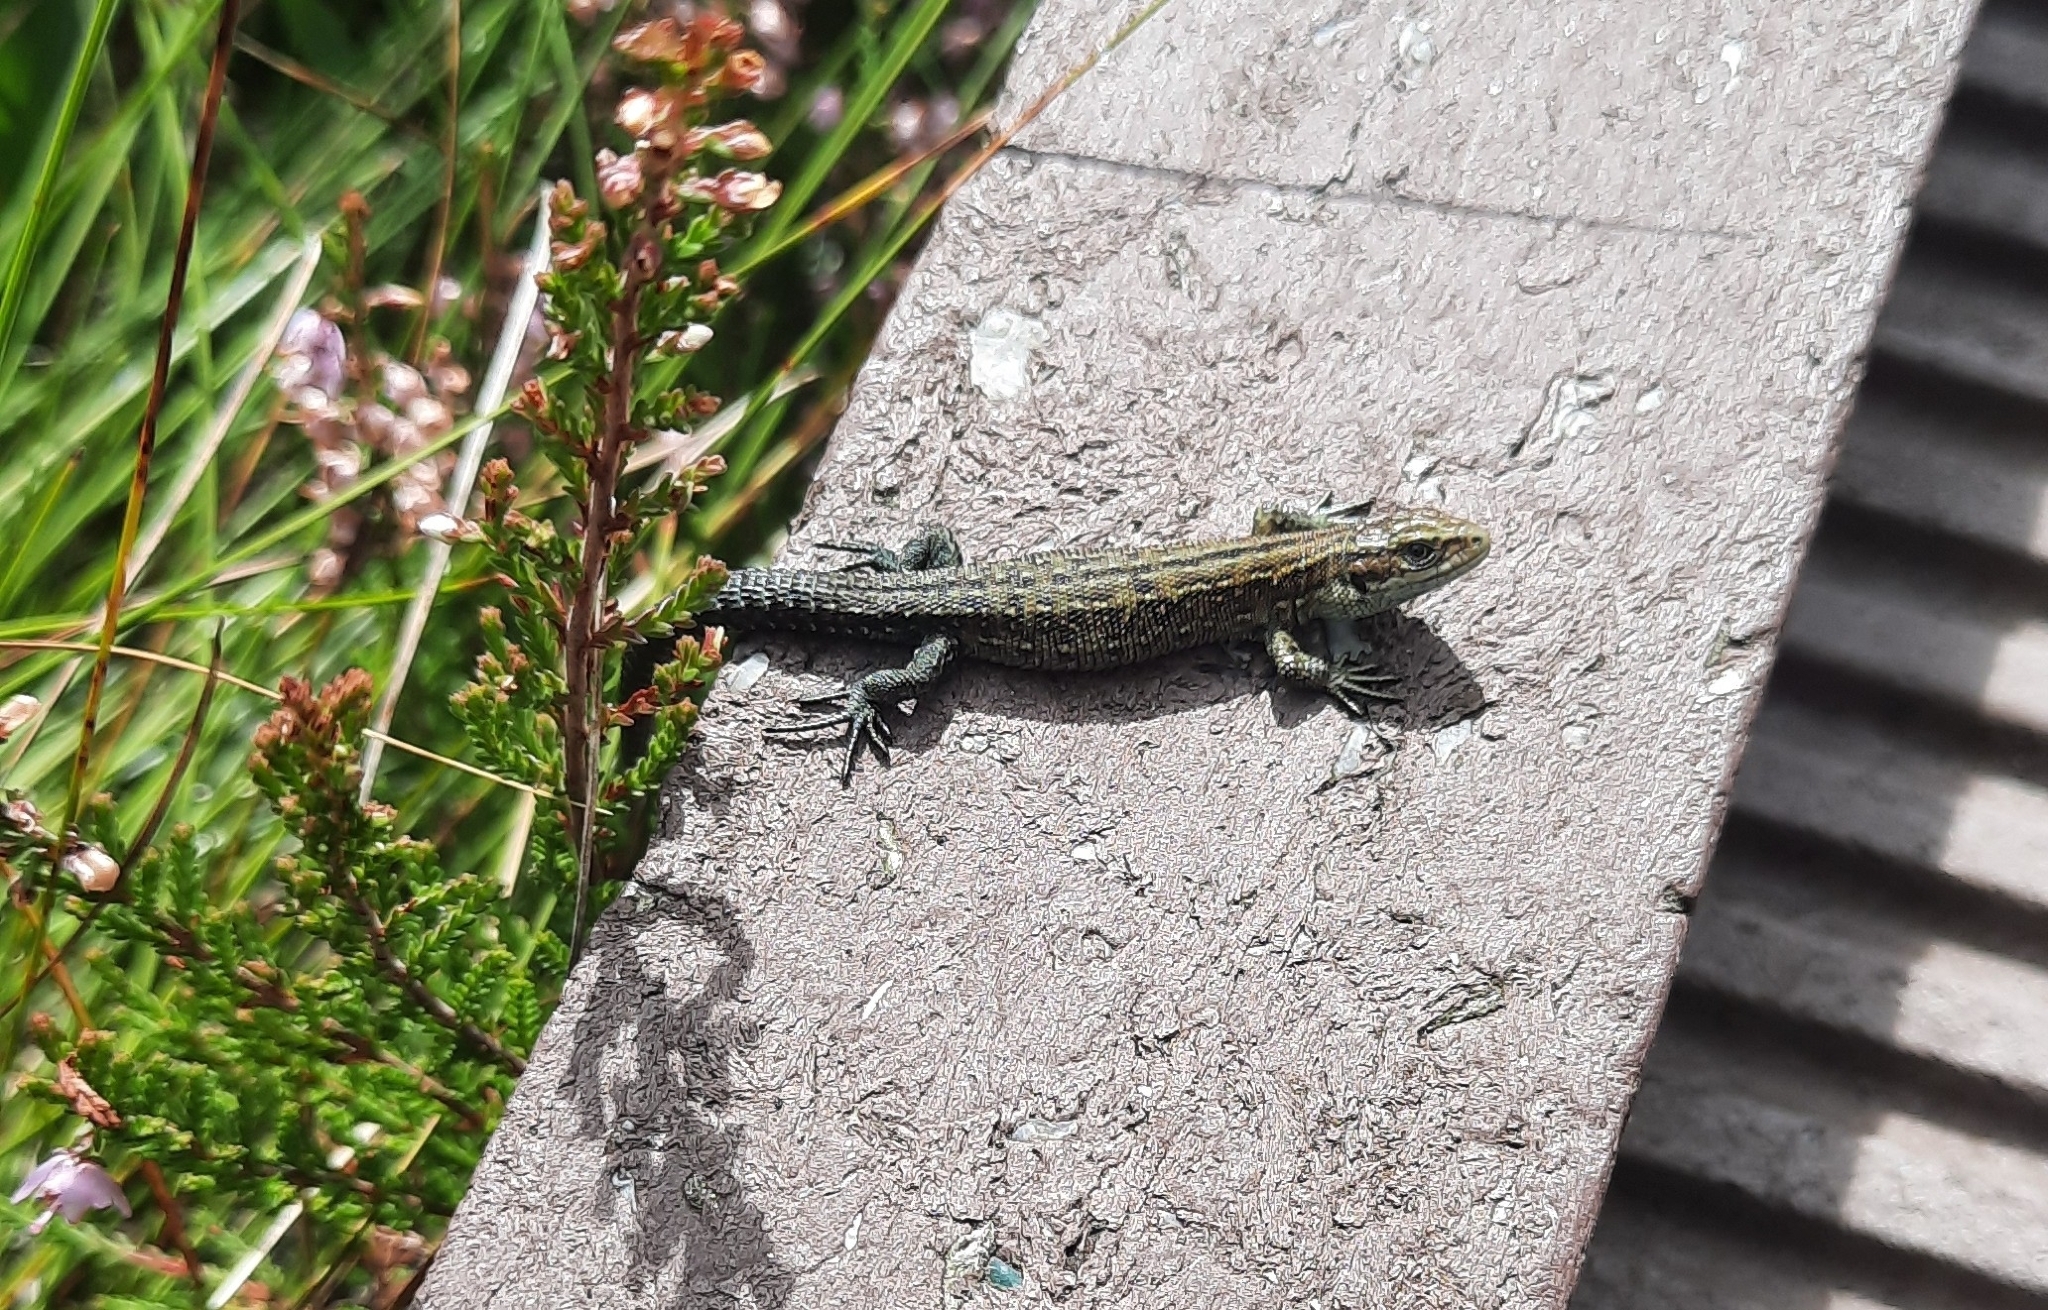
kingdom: Animalia
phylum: Chordata
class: Squamata
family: Lacertidae
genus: Zootoca
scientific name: Zootoca vivipara
